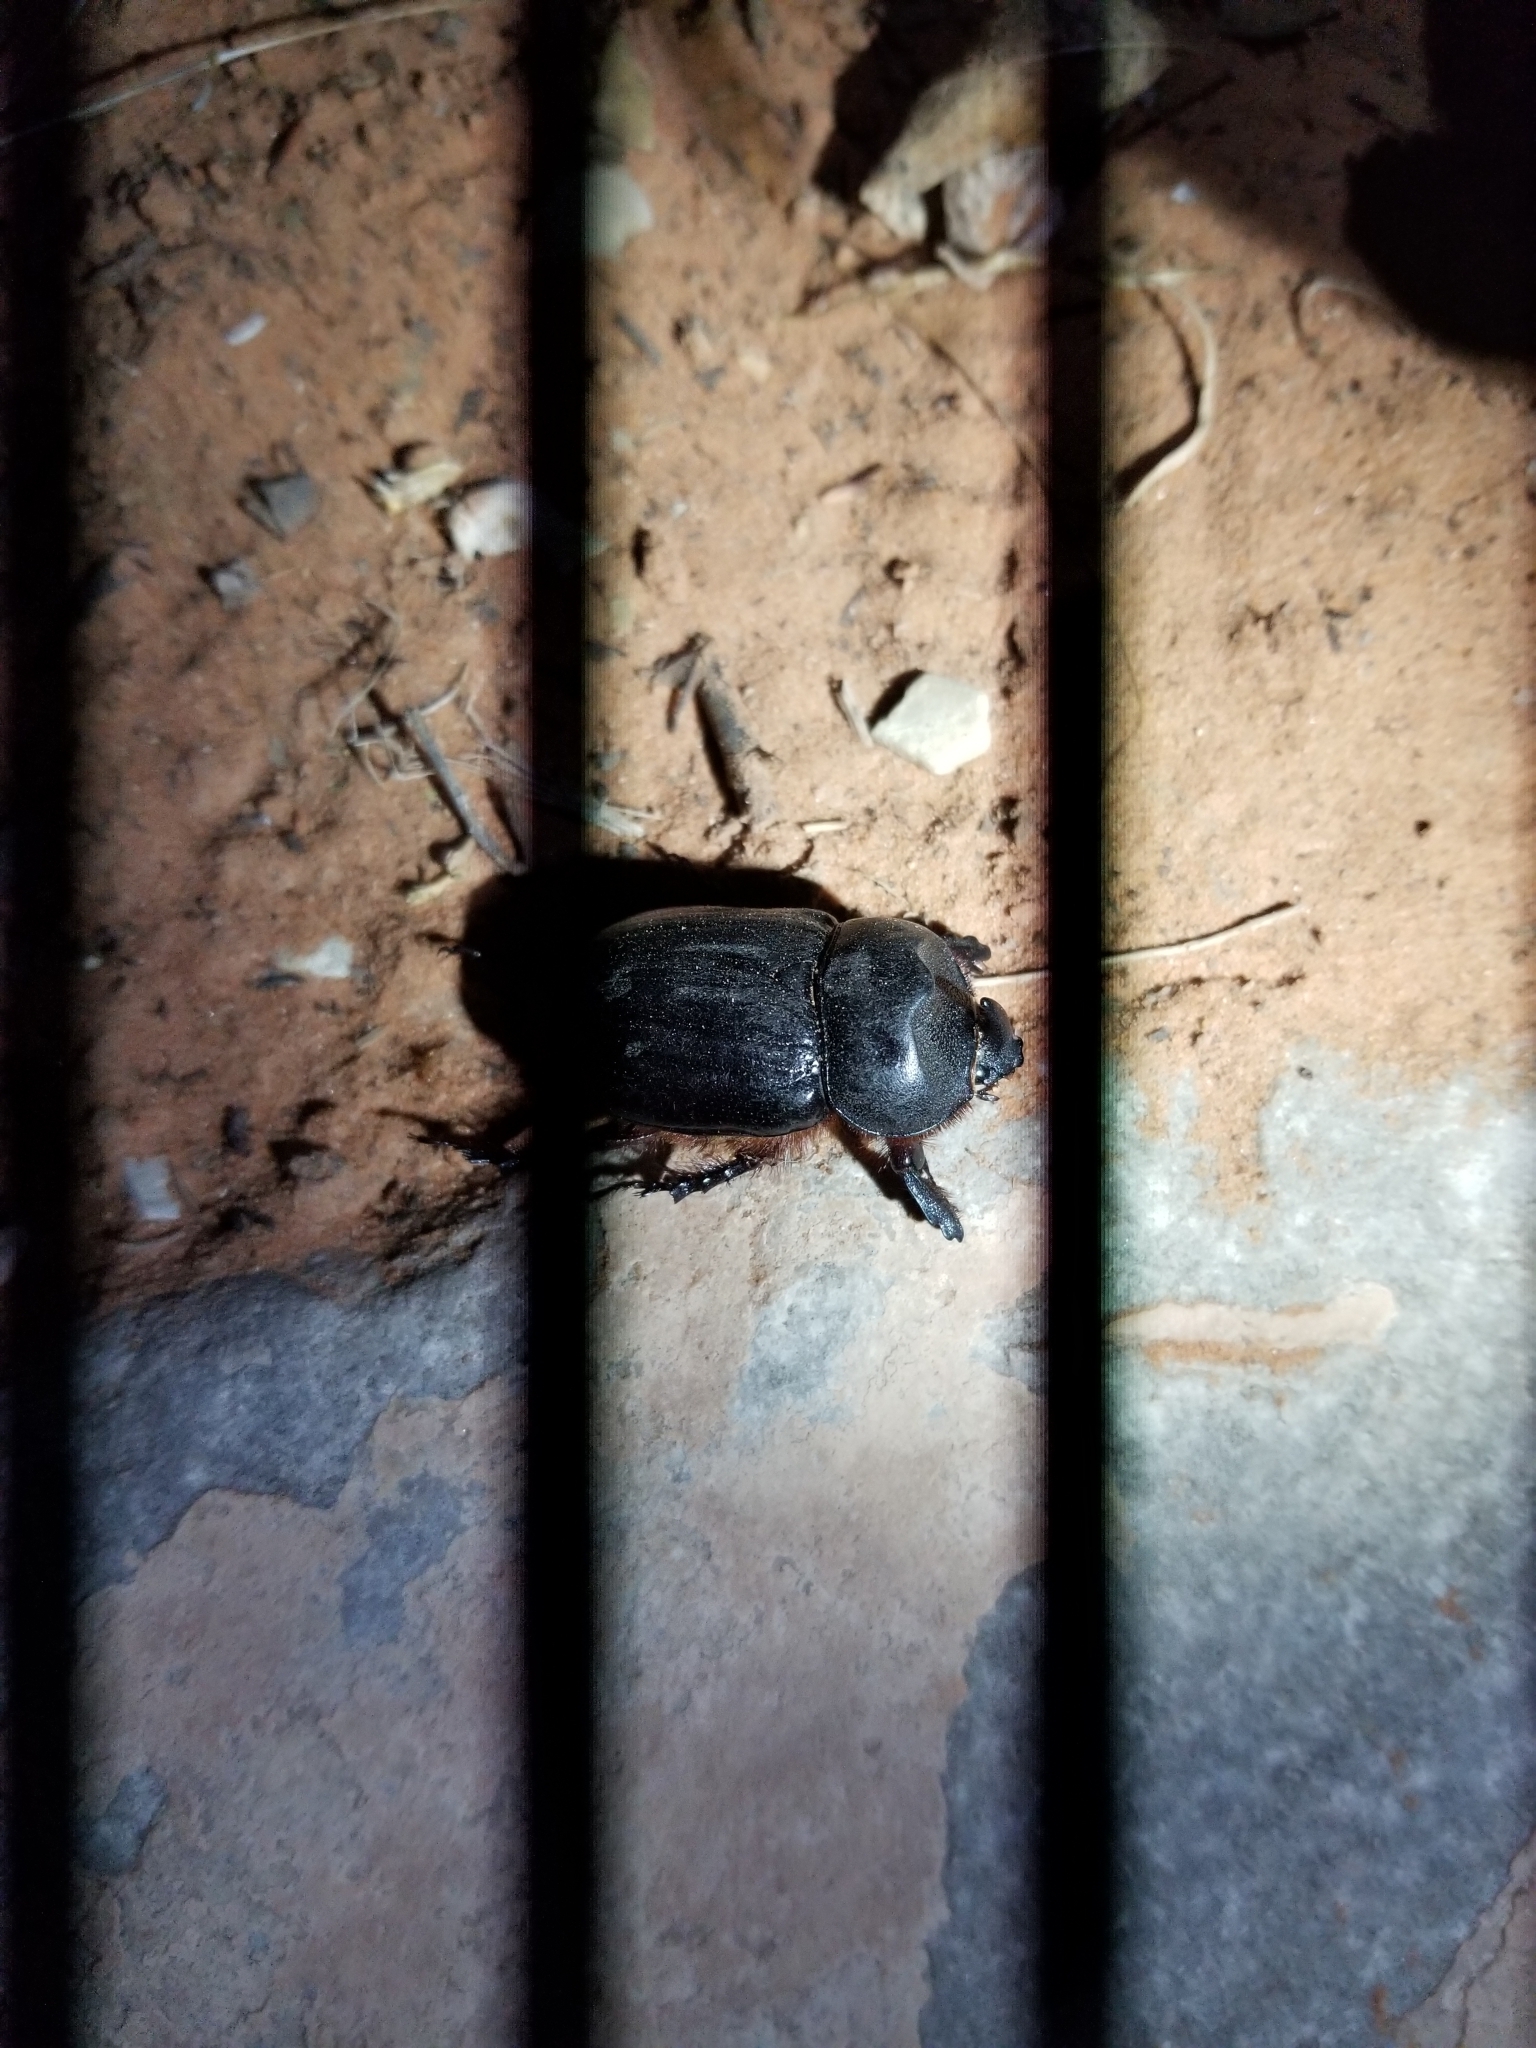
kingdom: Animalia
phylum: Arthropoda
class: Insecta
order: Coleoptera
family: Scarabaeidae
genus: Xyloryctes
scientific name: Xyloryctes thestalus
